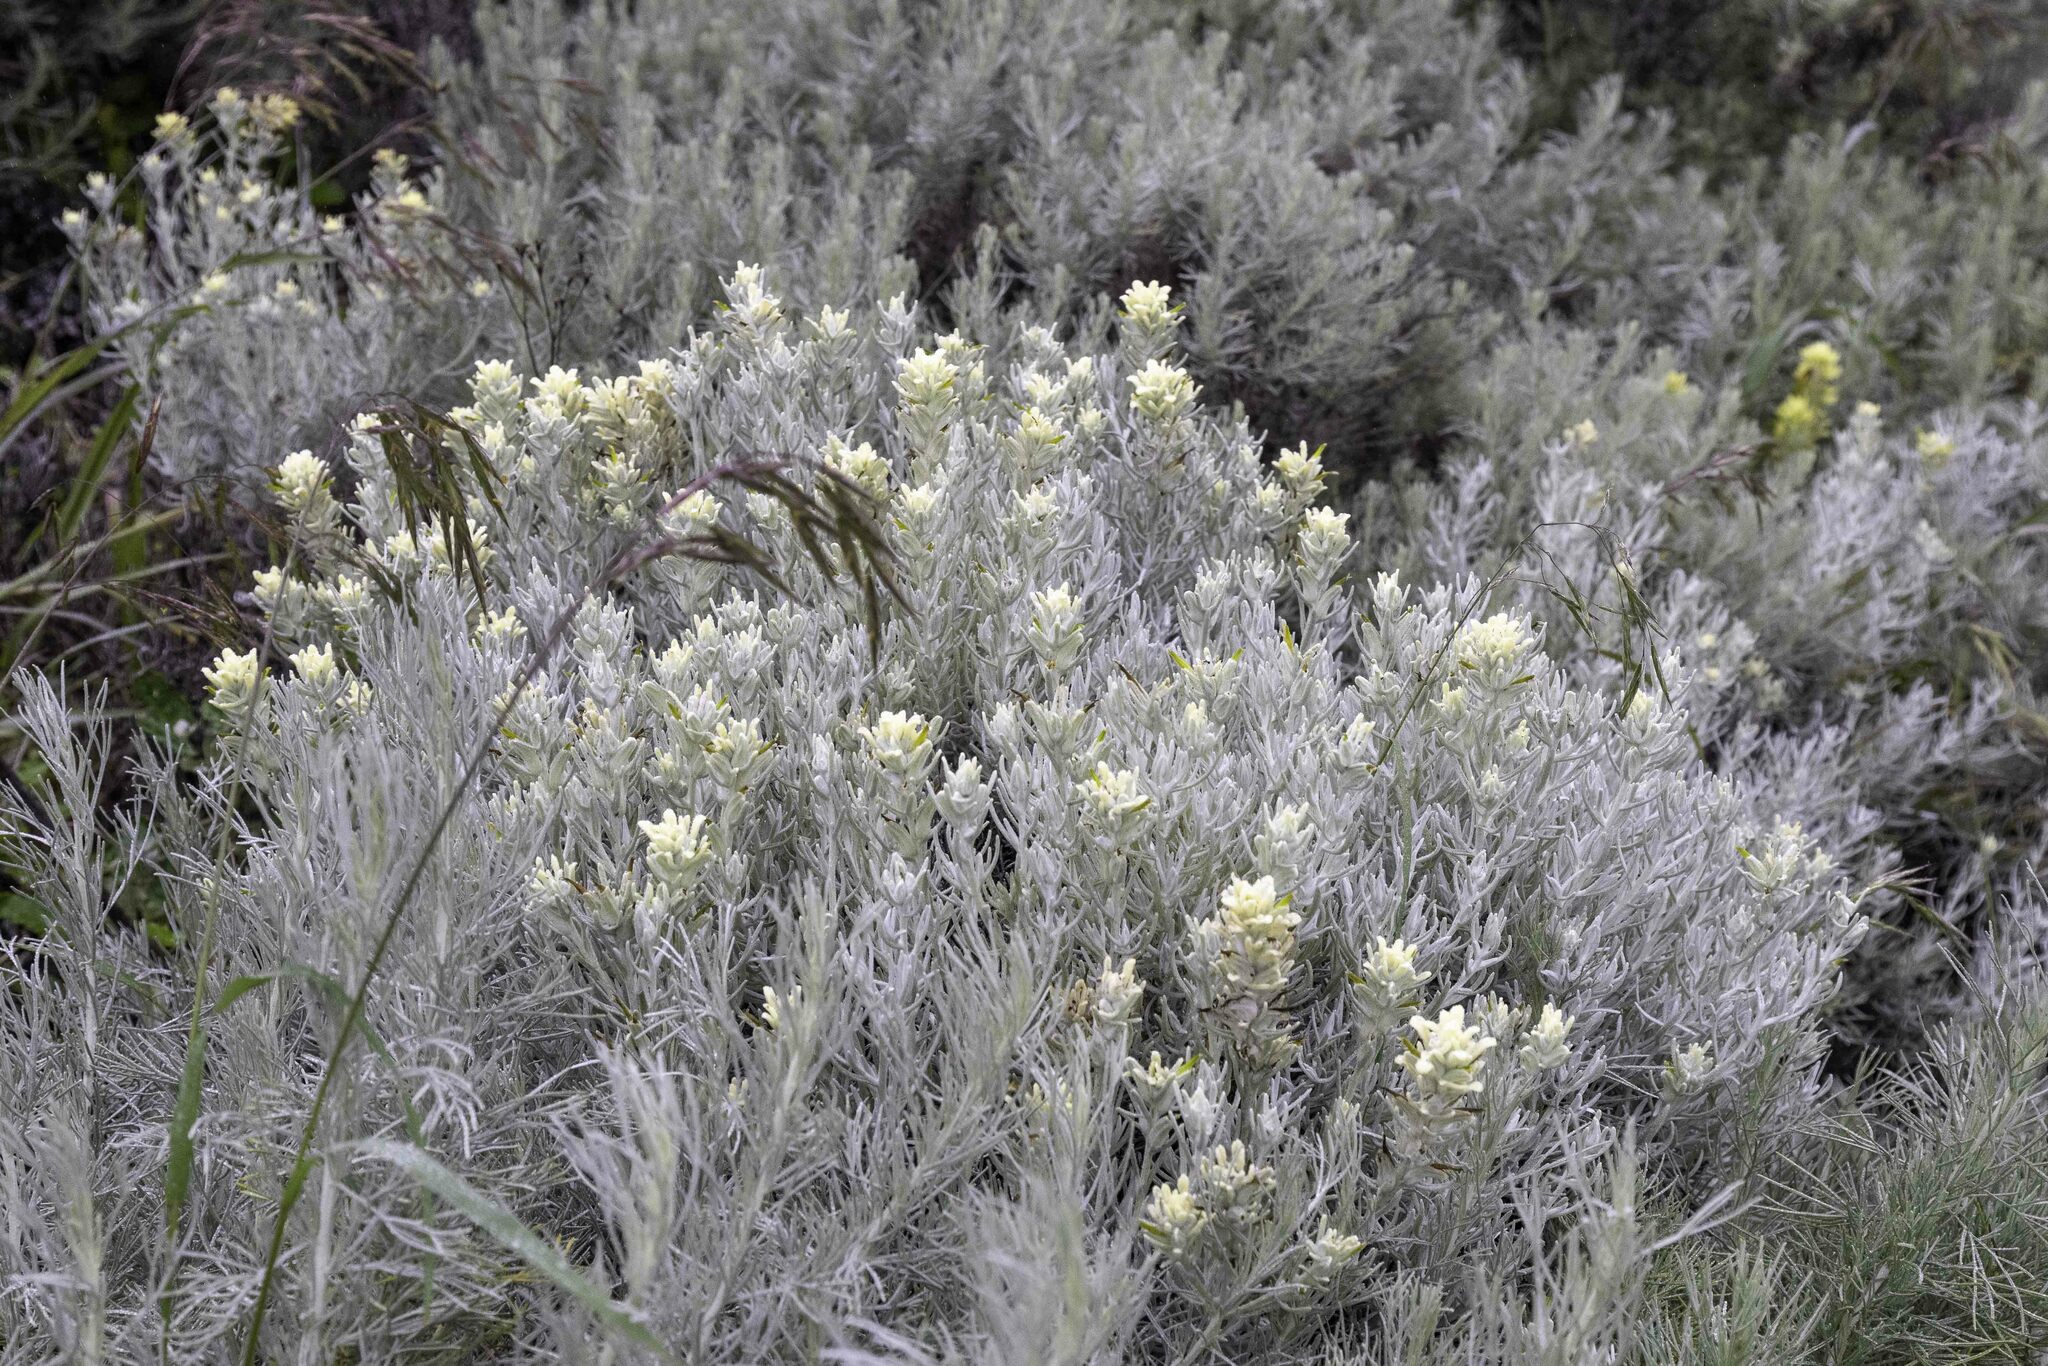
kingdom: Plantae
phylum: Tracheophyta
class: Magnoliopsida
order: Lamiales
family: Orobanchaceae
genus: Castilleja
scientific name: Castilleja hololeuca
